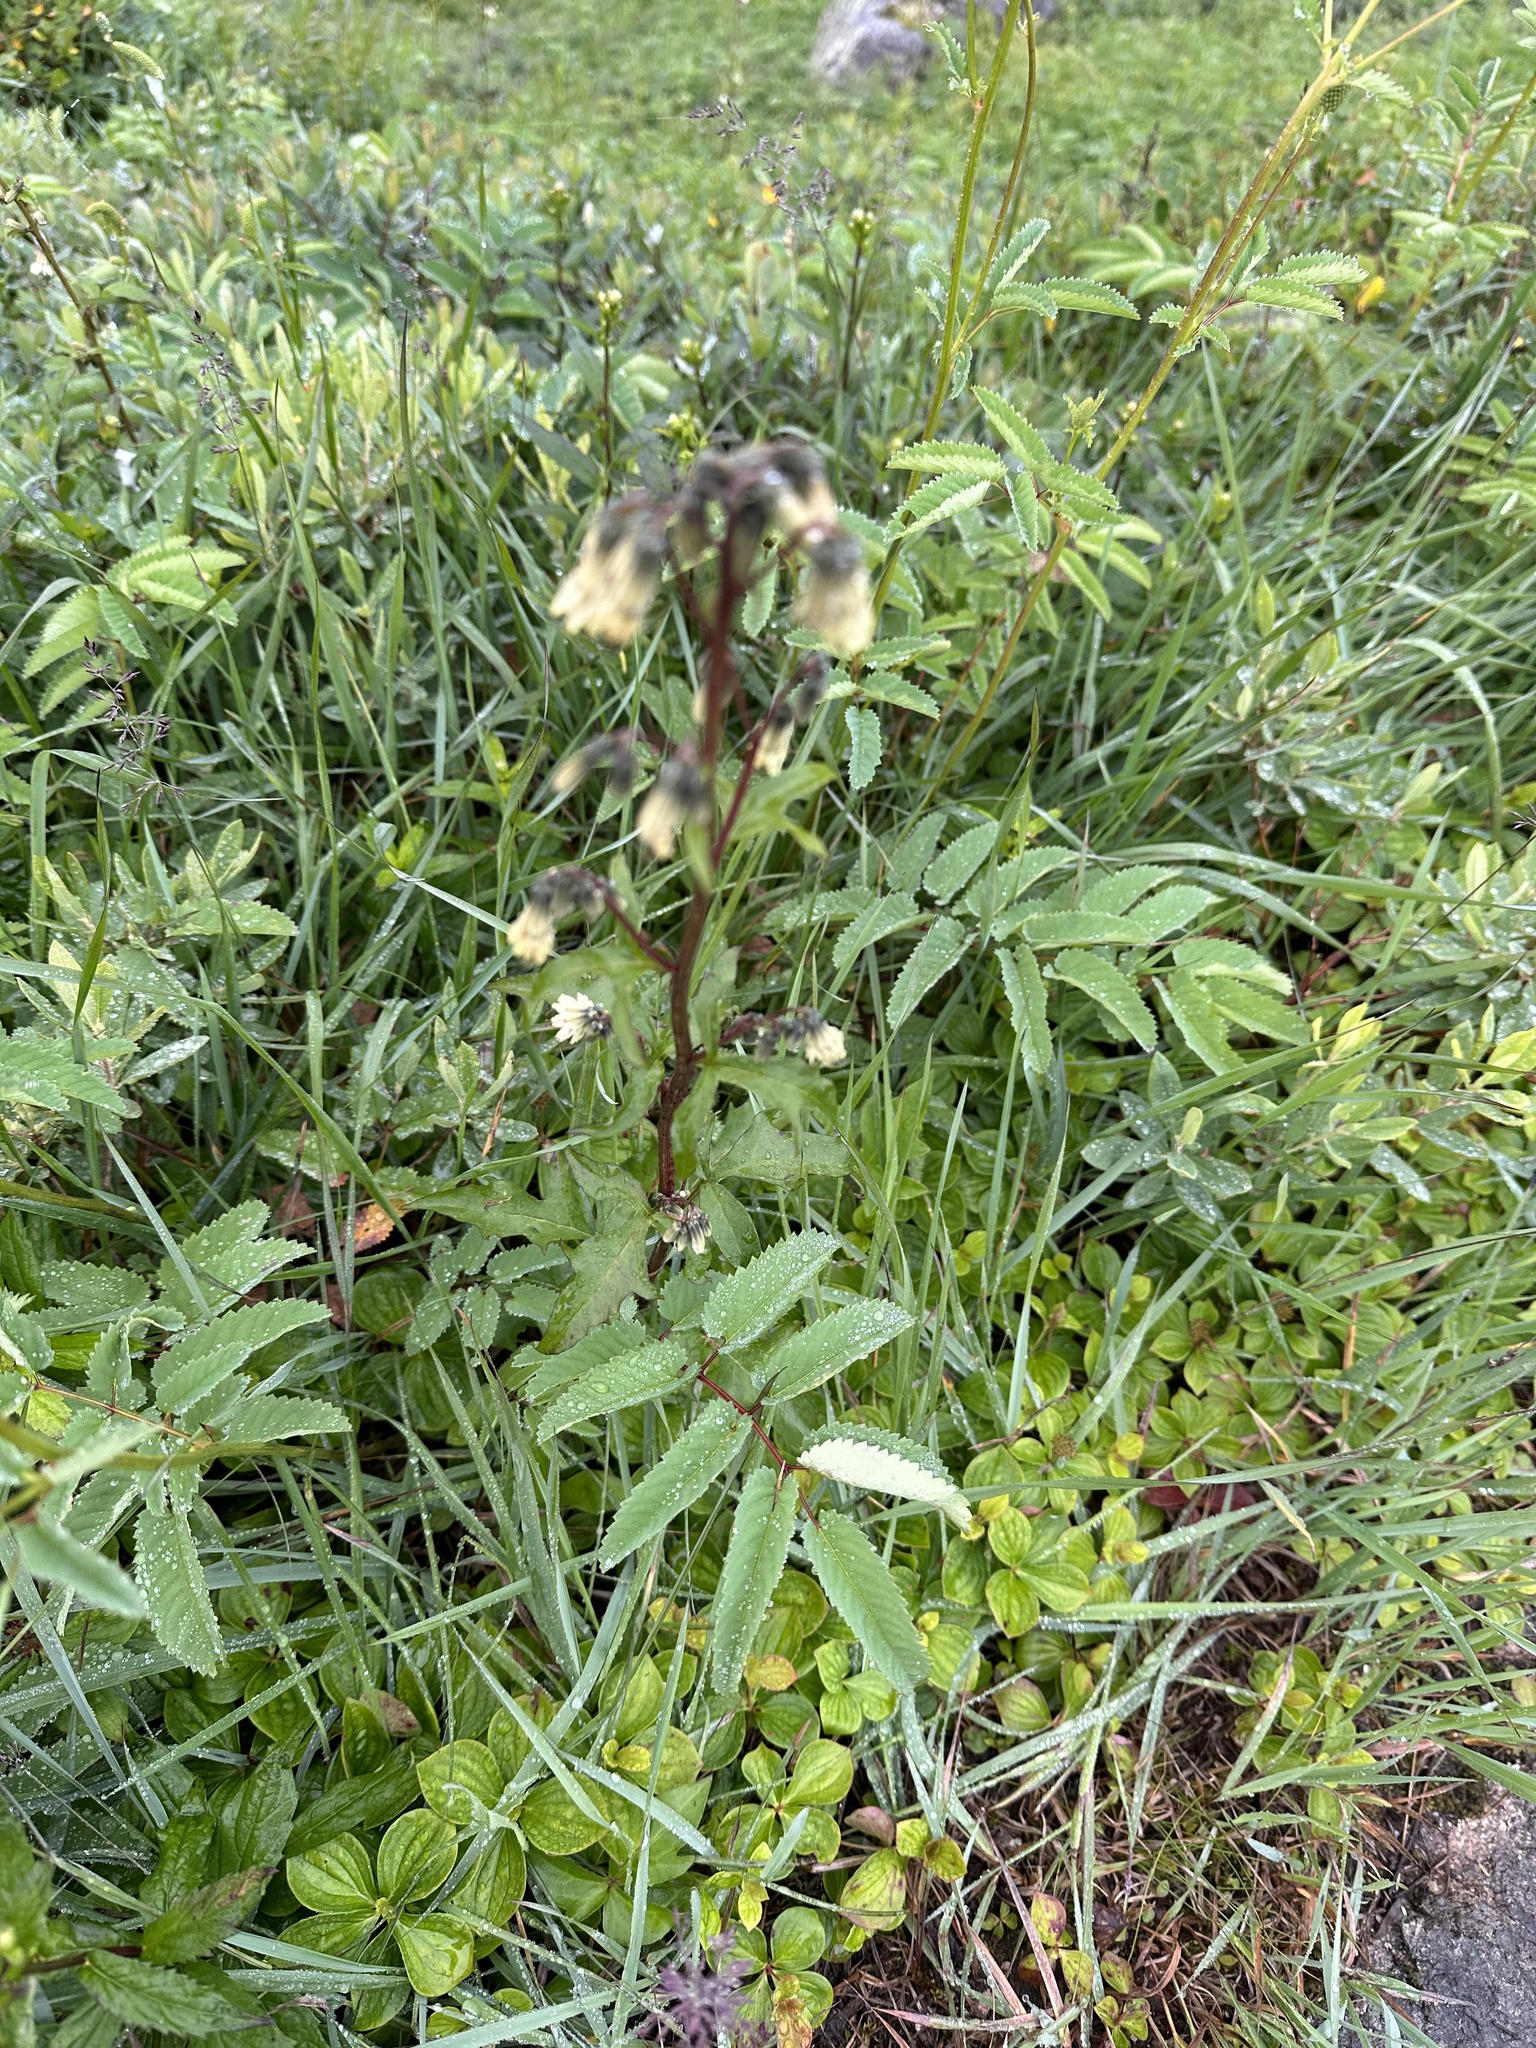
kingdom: Plantae
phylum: Tracheophyta
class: Magnoliopsida
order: Rosales
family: Rosaceae
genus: Sanguisorba
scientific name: Sanguisorba canadensis
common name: White burnet
